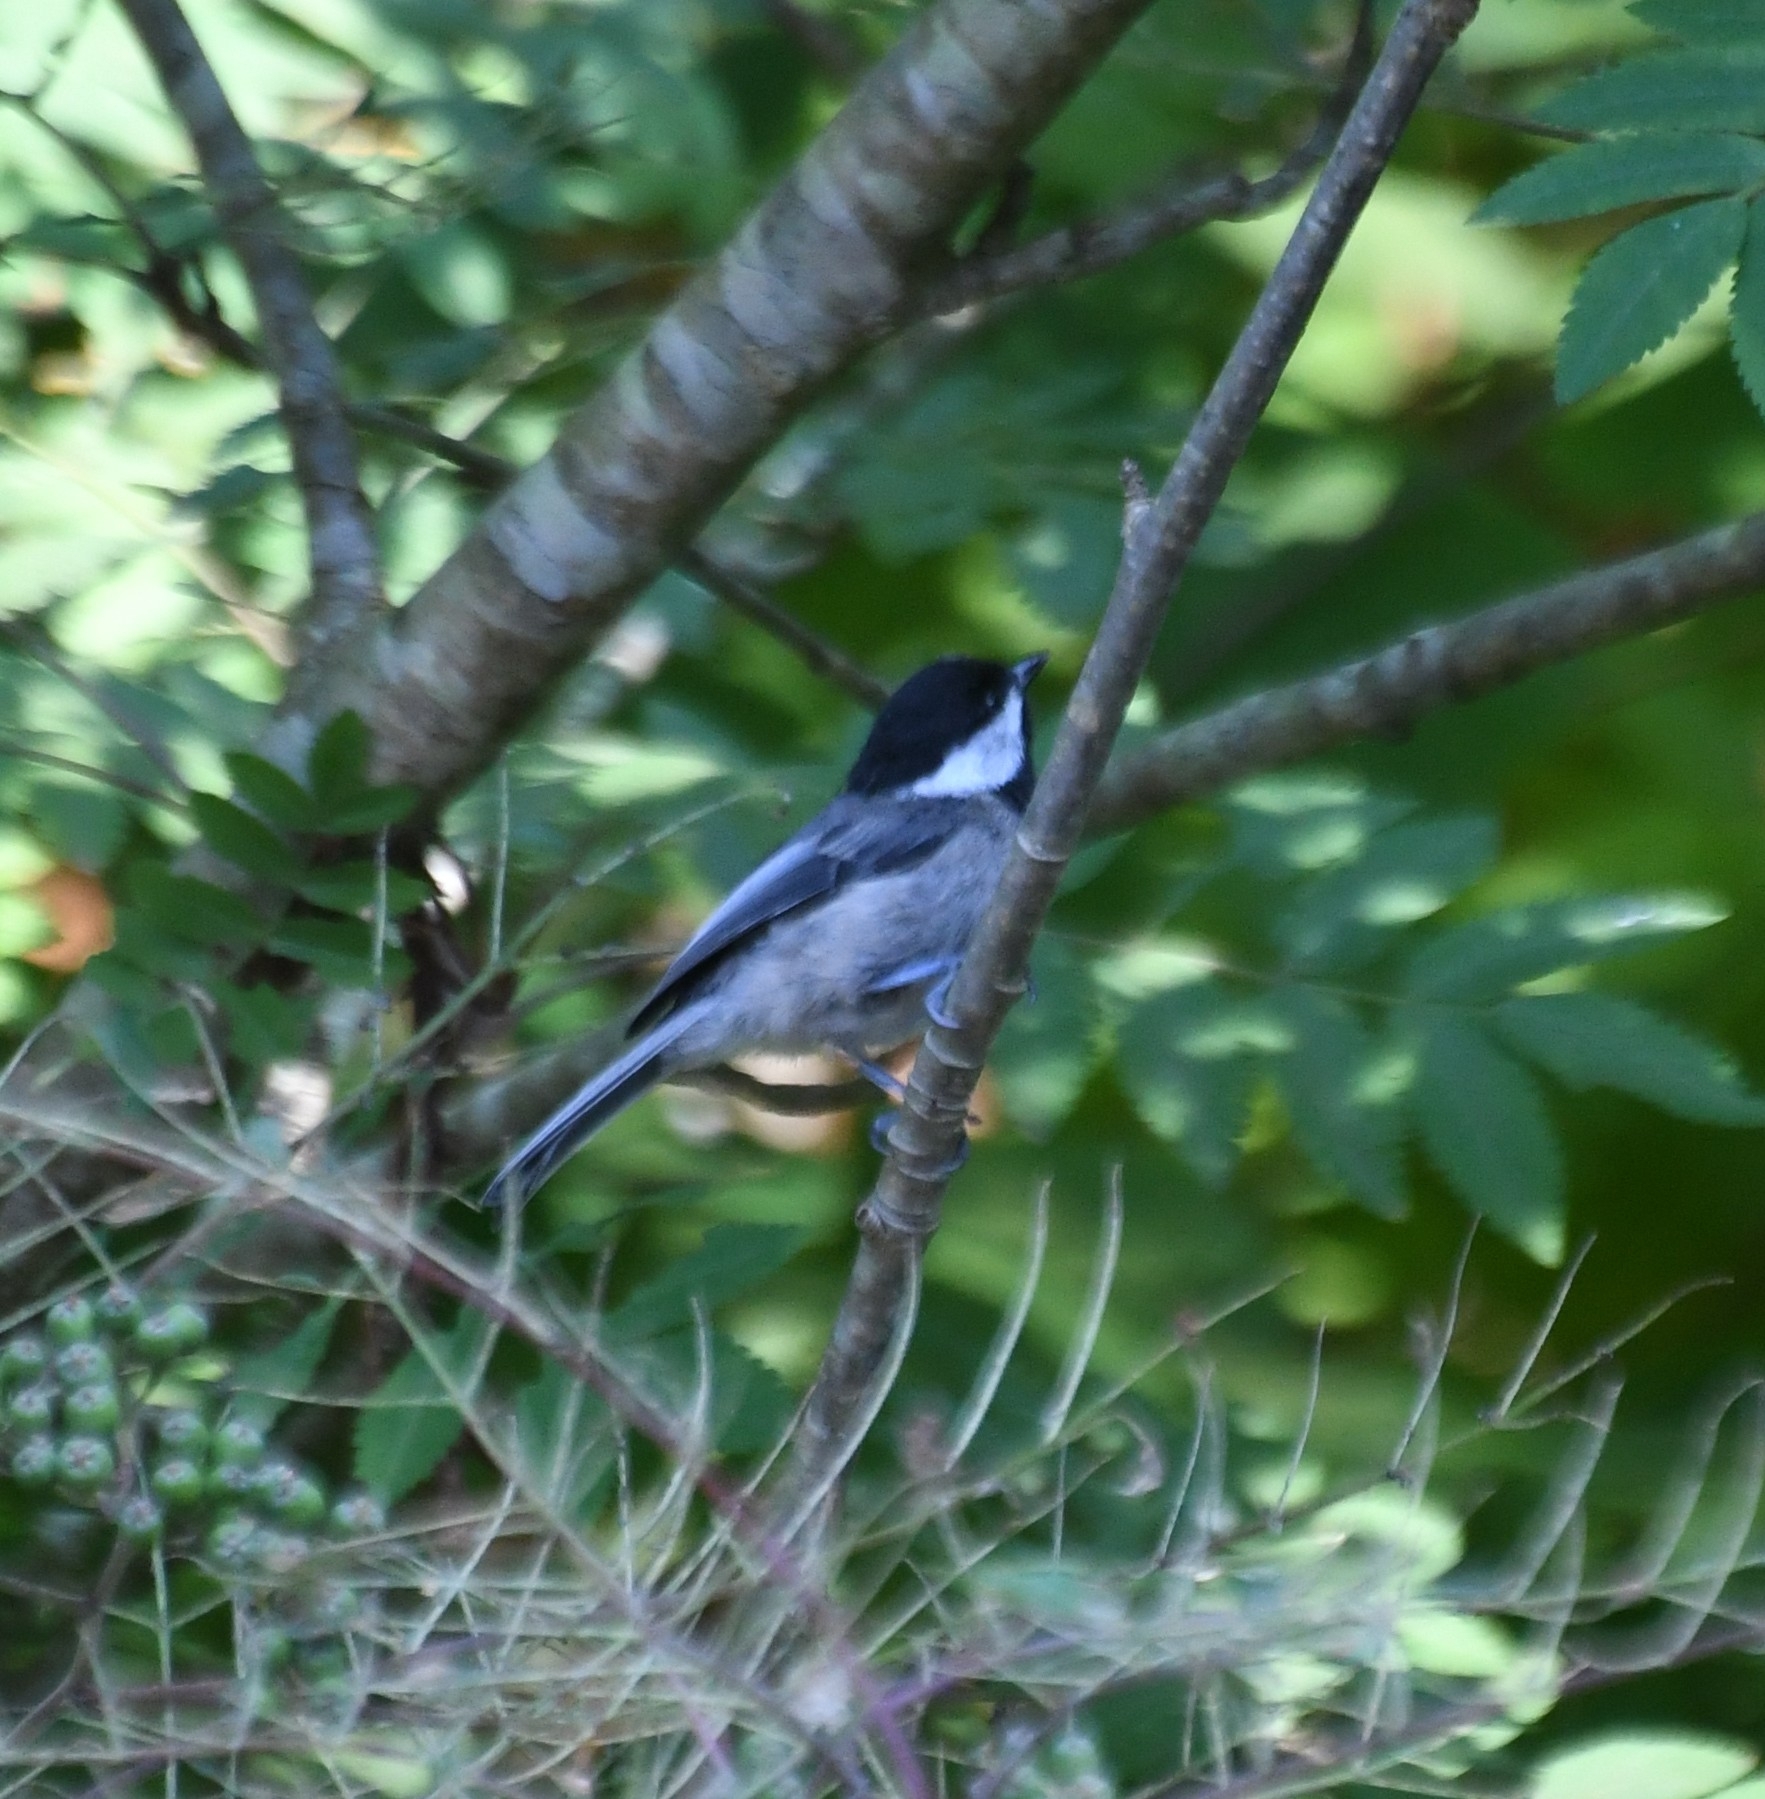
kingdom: Animalia
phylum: Chordata
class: Aves
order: Passeriformes
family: Paridae
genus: Poecile
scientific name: Poecile atricapillus
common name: Black-capped chickadee
